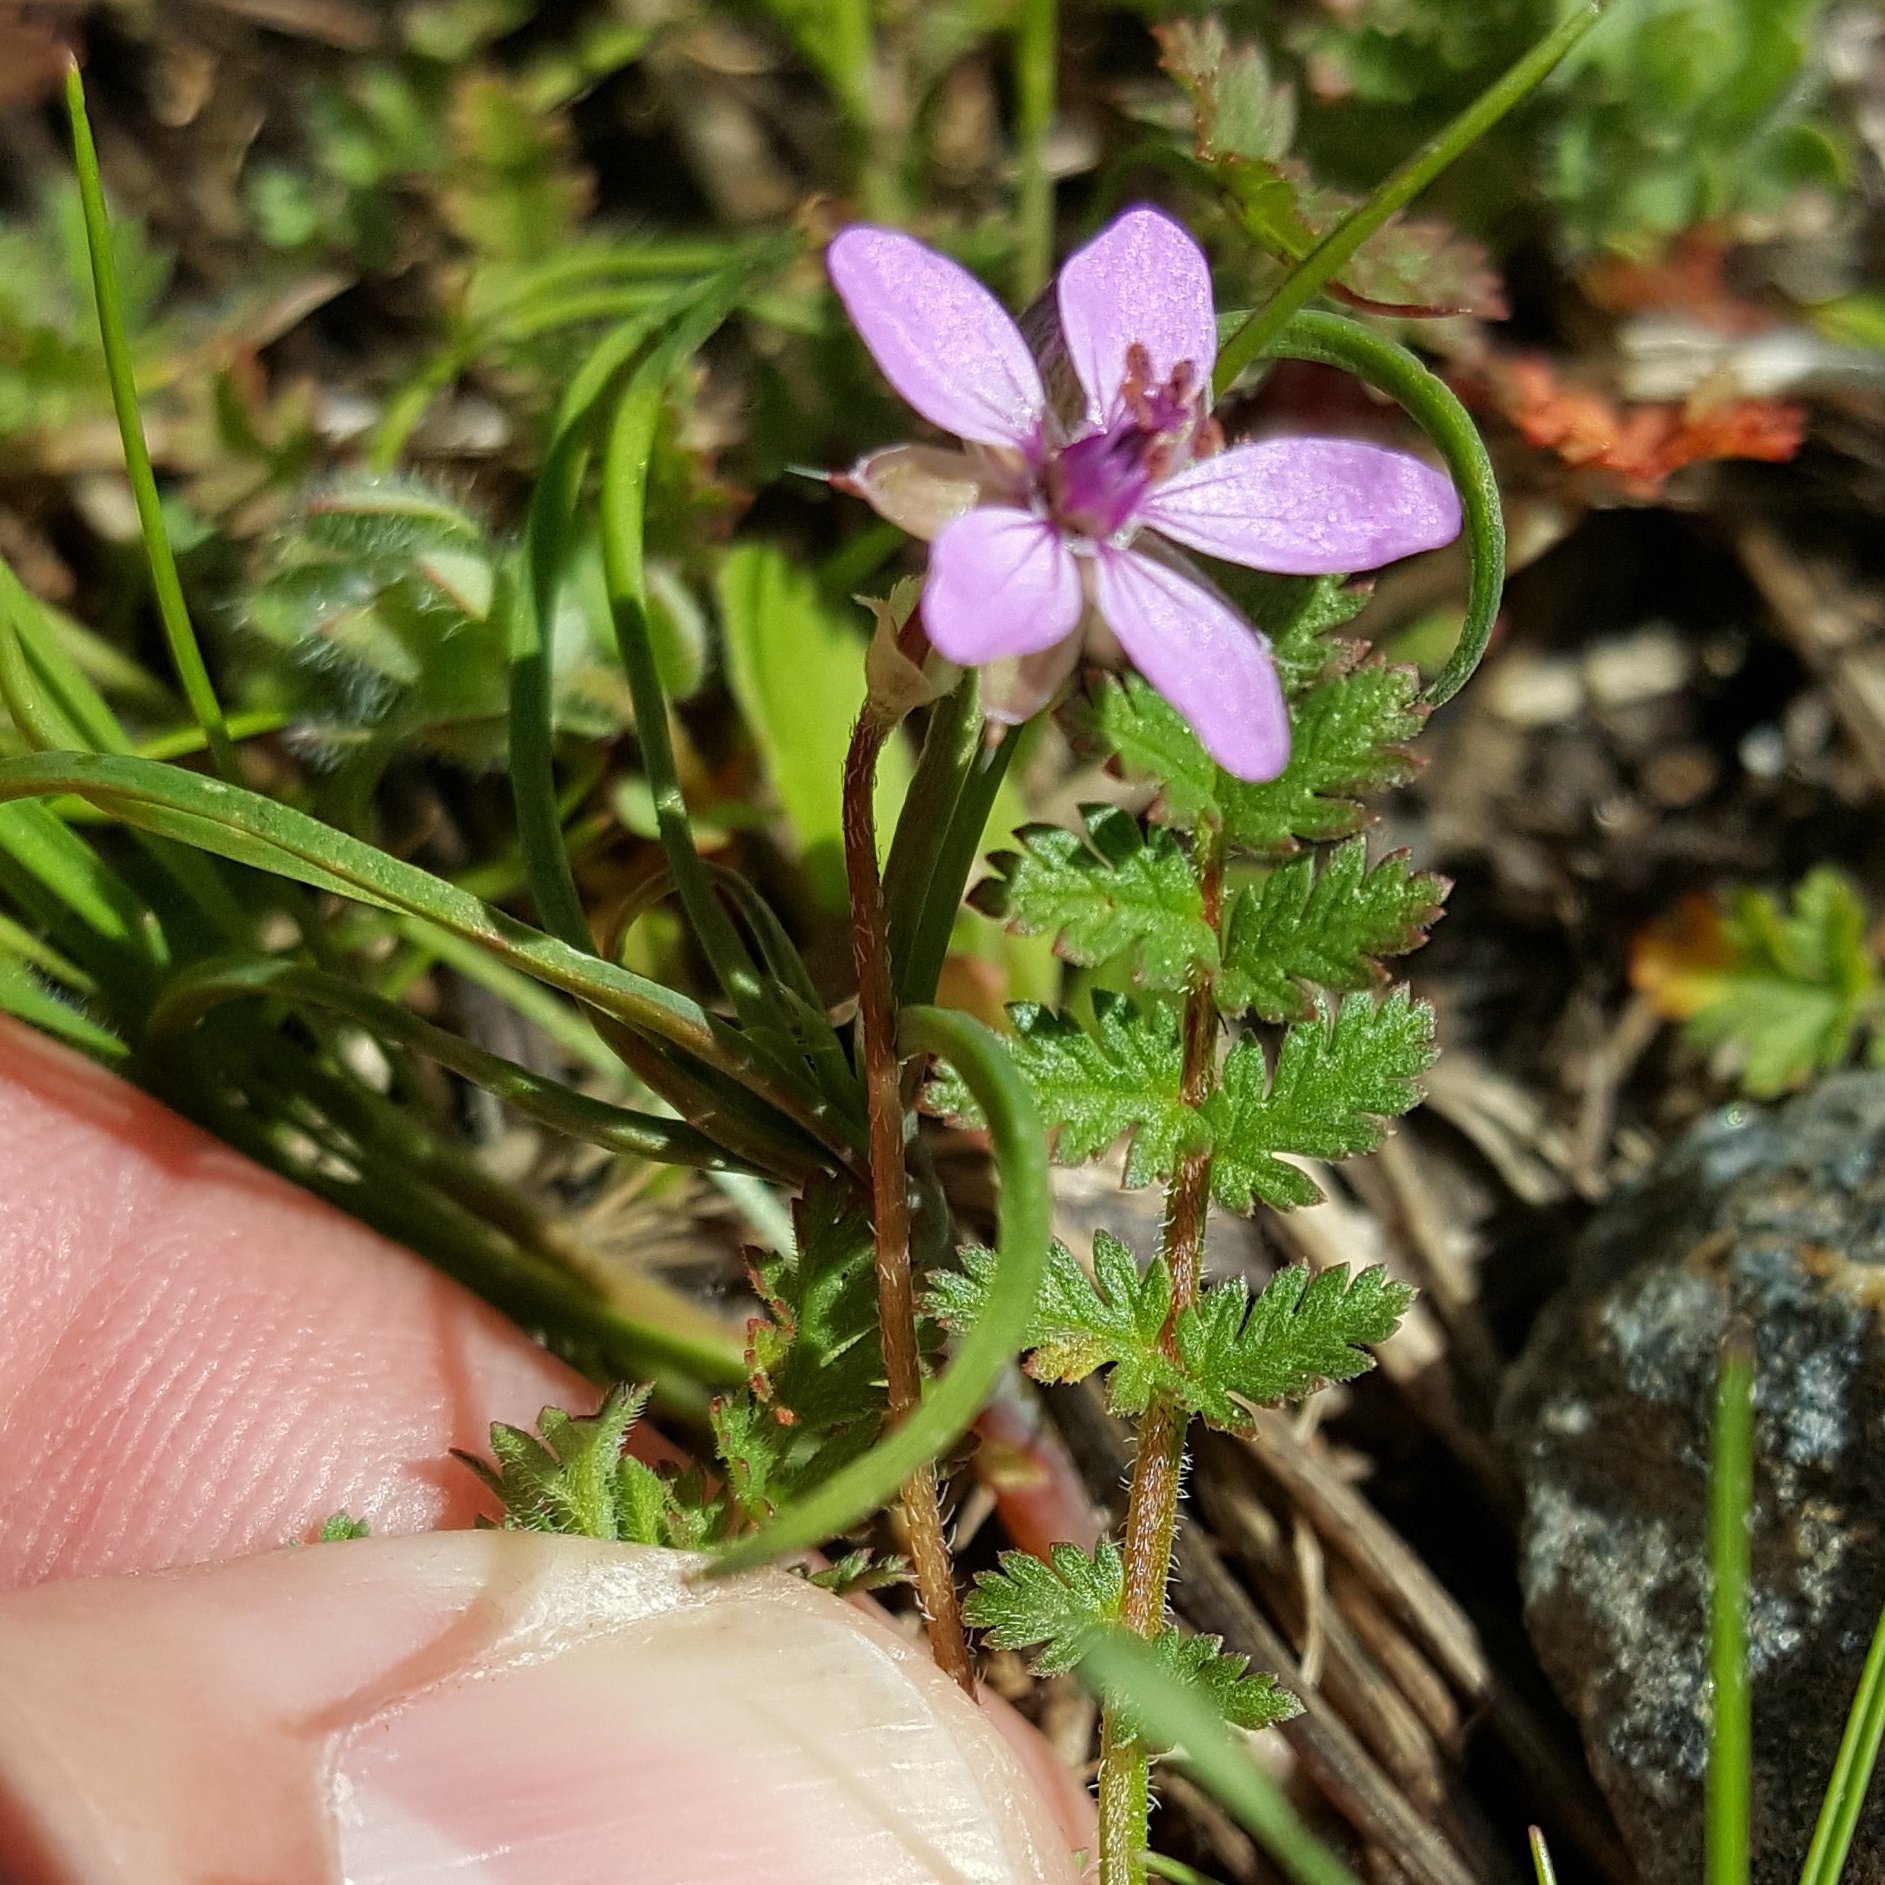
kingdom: Plantae
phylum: Tracheophyta
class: Magnoliopsida
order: Geraniales
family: Geraniaceae
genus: Erodium
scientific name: Erodium cicutarium
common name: Common stork's-bill
